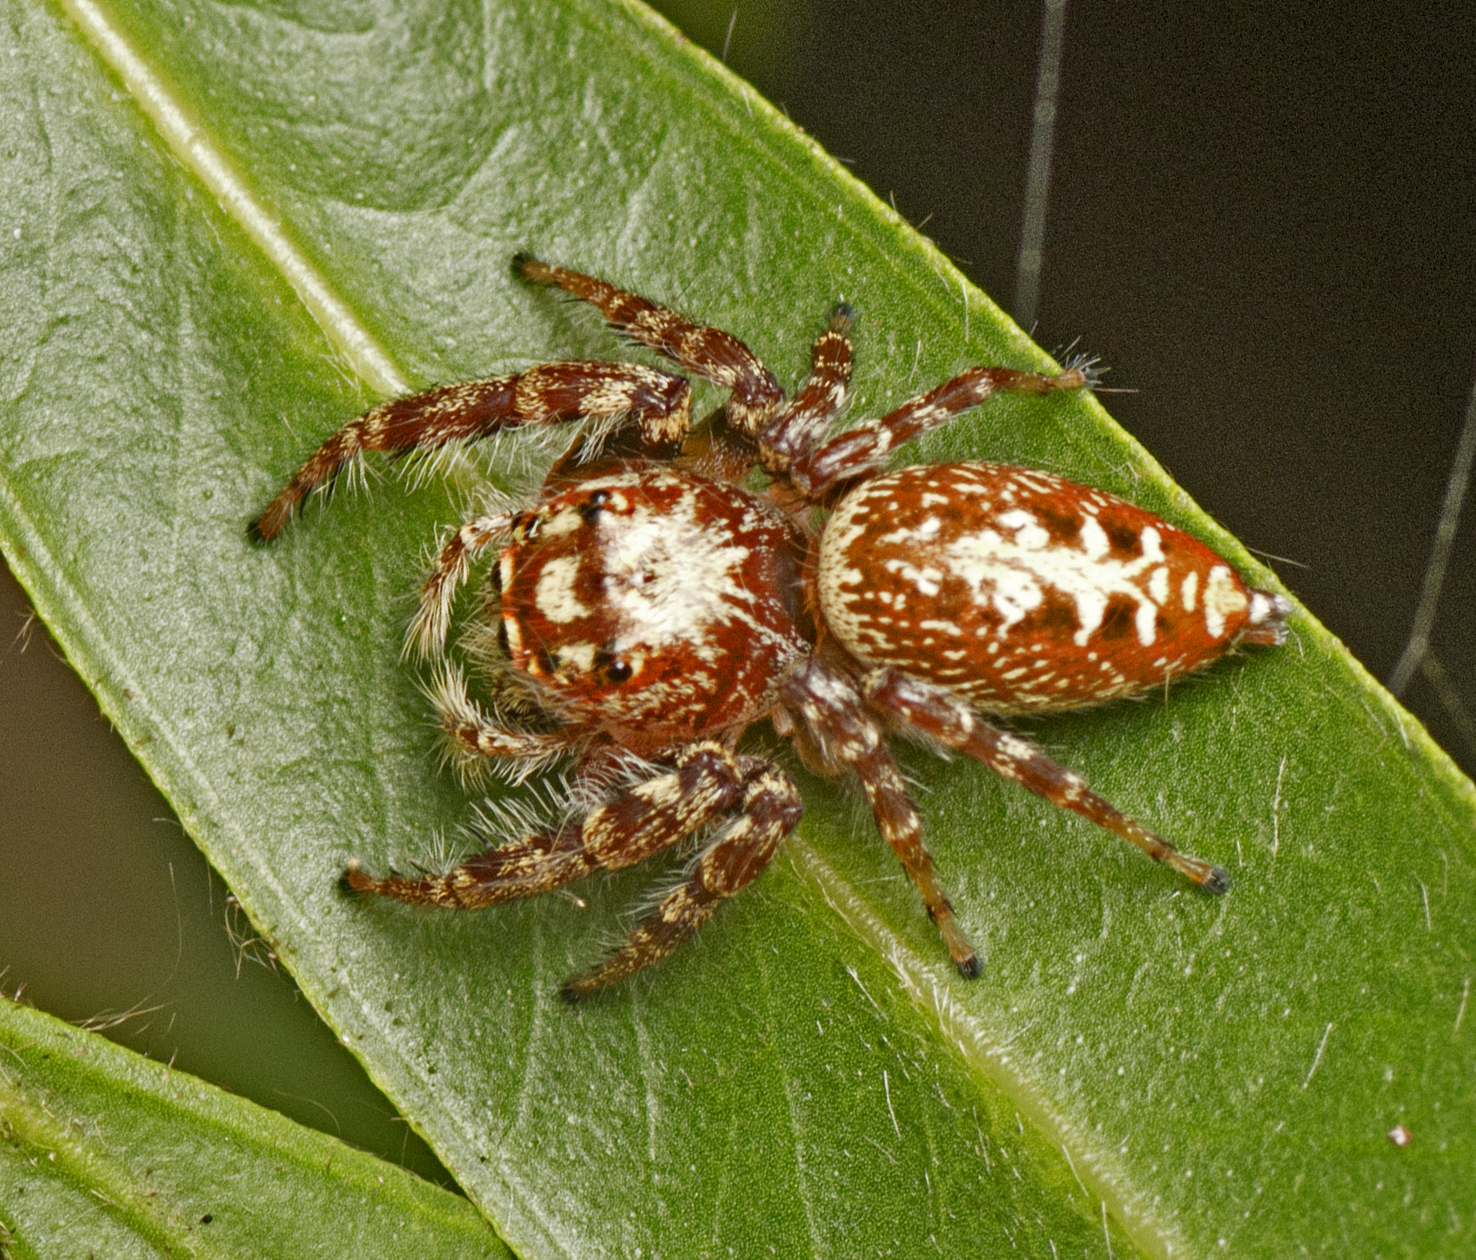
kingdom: Animalia
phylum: Arthropoda
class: Arachnida
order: Araneae
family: Salticidae
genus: Opisthoncus
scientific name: Opisthoncus quadratarius
